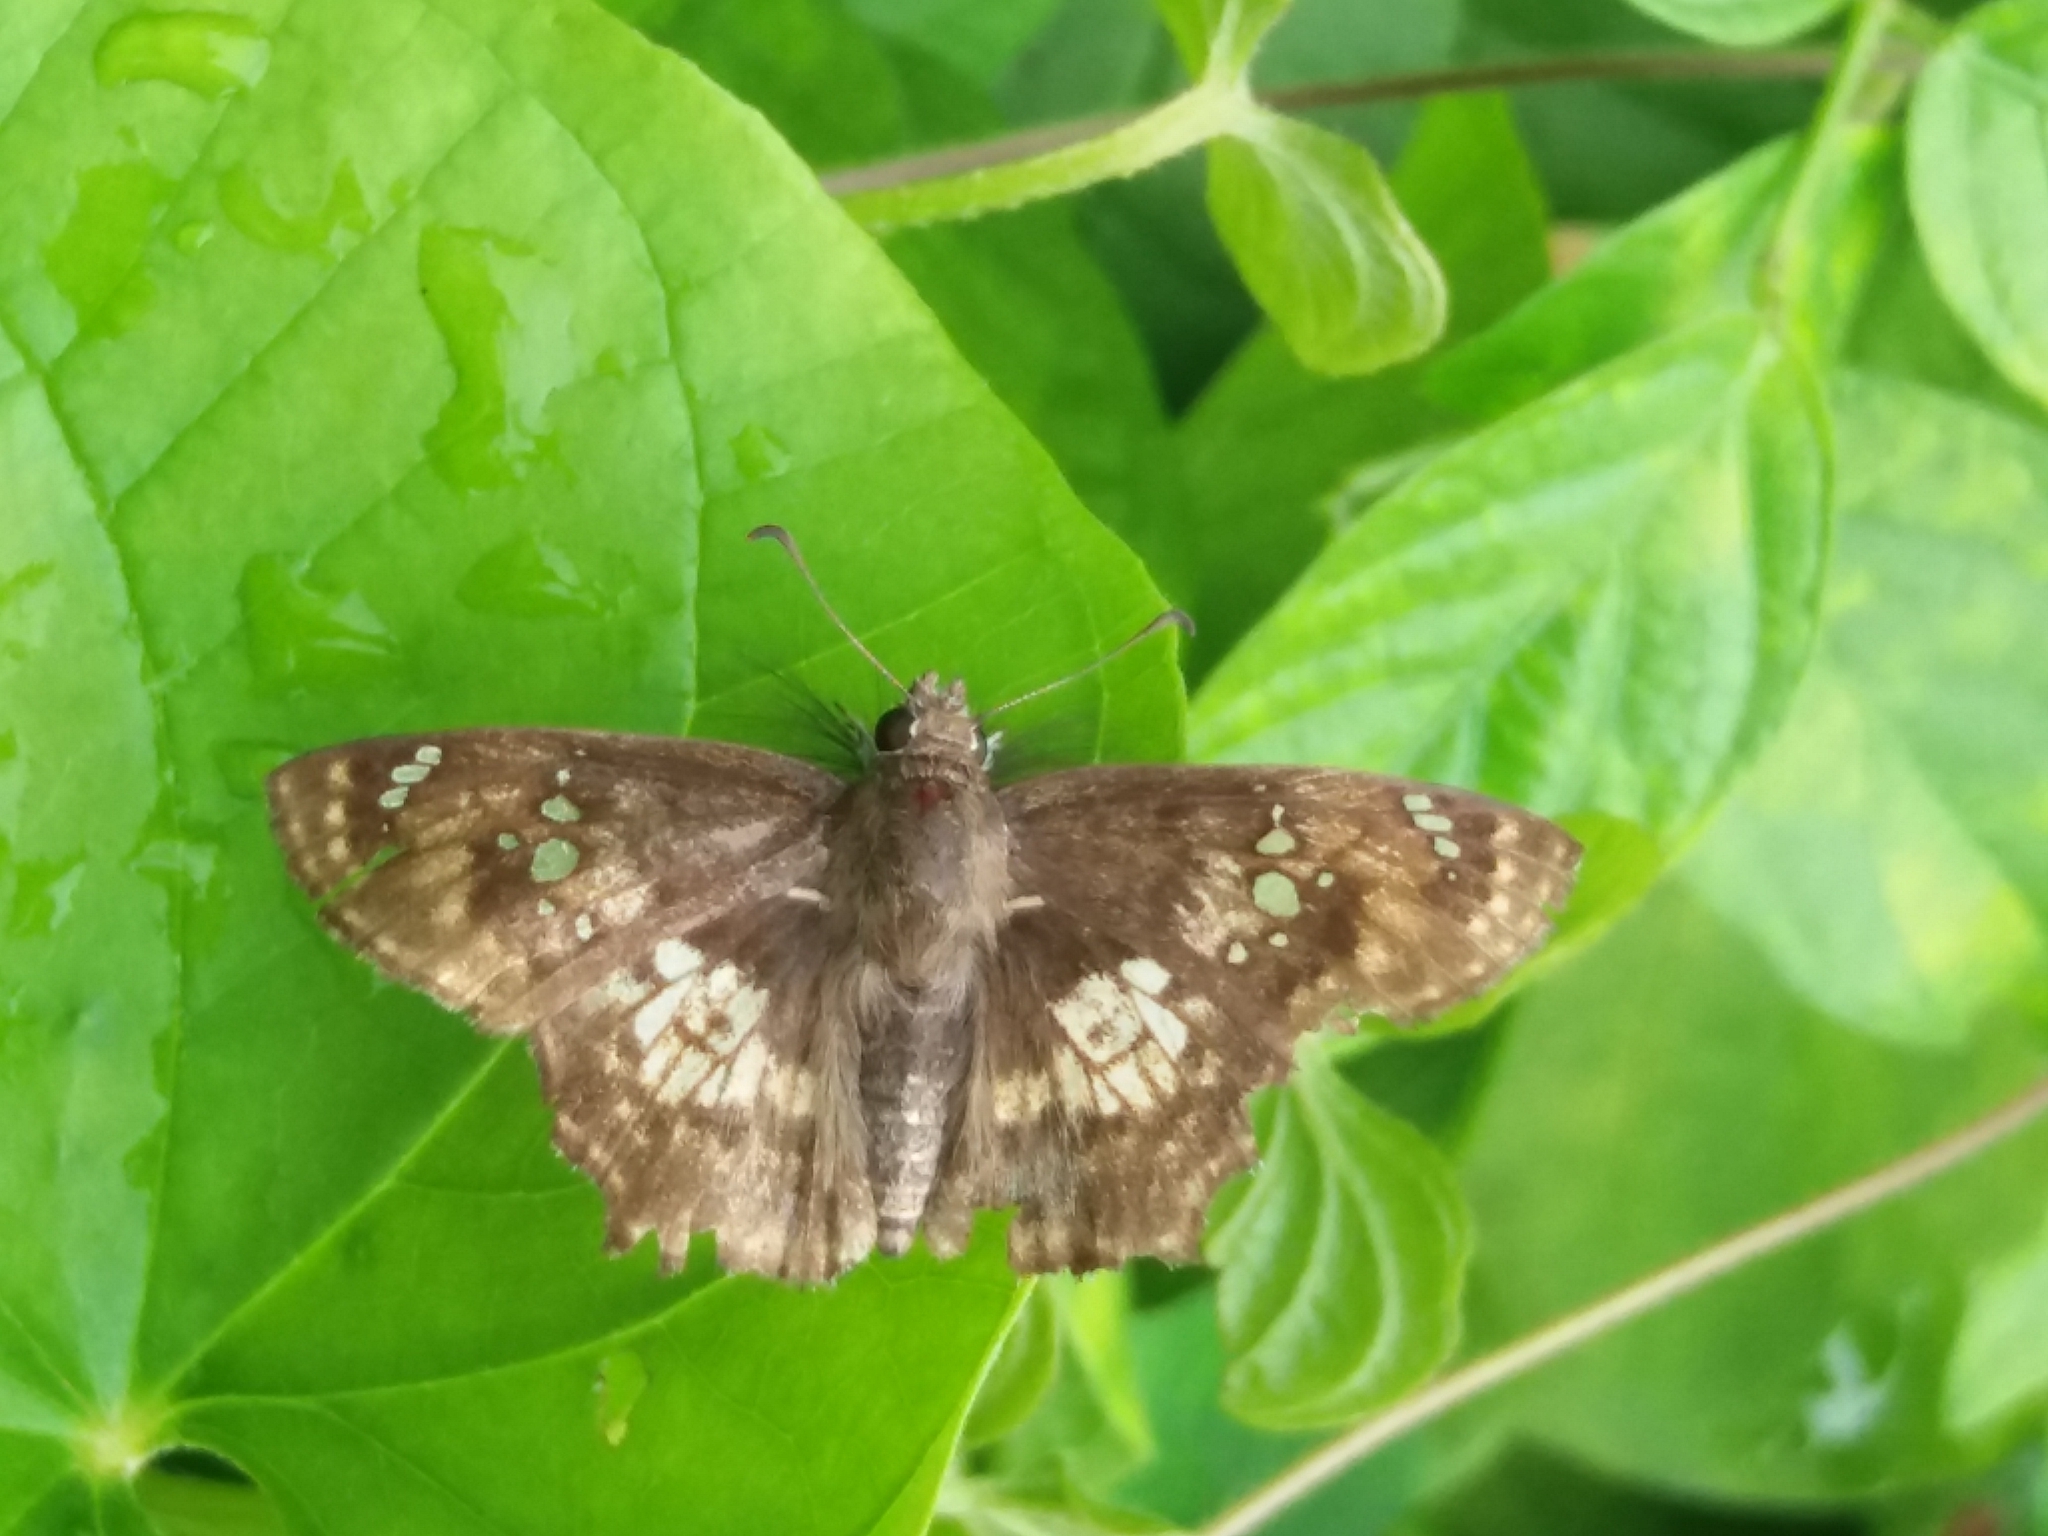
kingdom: Animalia
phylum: Arthropoda
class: Insecta
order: Lepidoptera
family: Hesperiidae
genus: Caprona
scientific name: Caprona ransonnettii
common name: Golden angle
